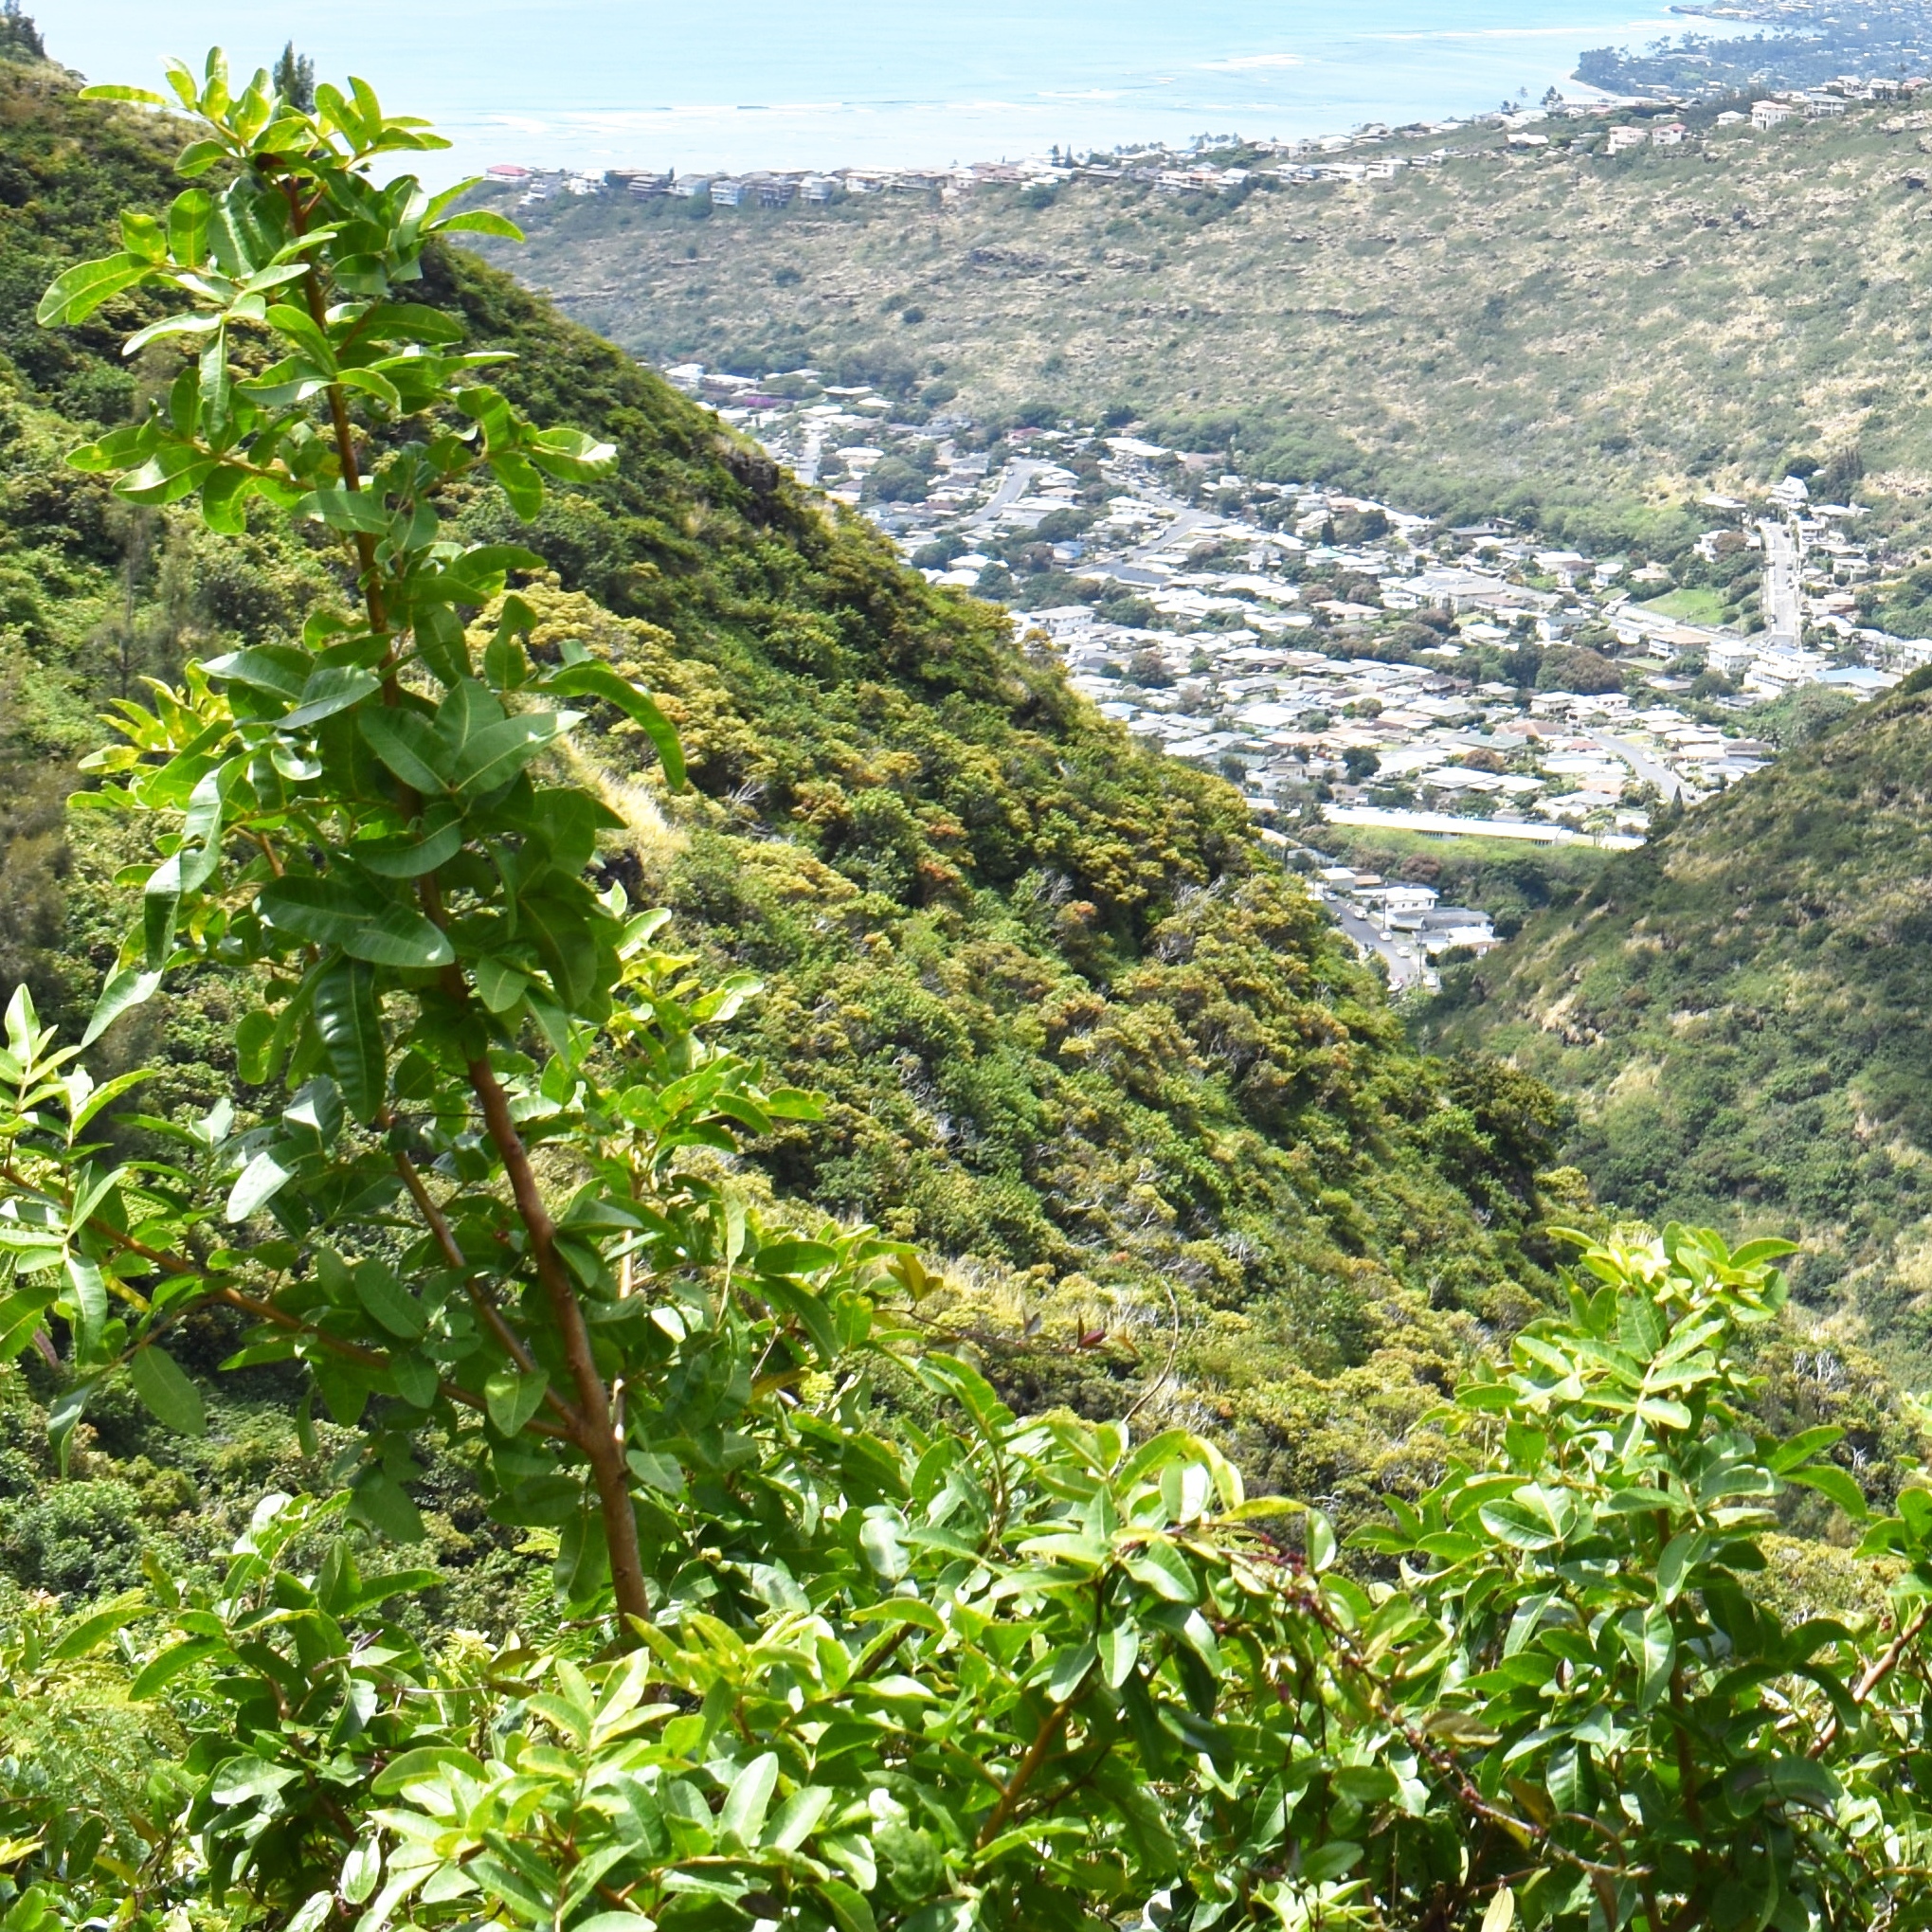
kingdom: Plantae
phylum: Tracheophyta
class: Magnoliopsida
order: Sapindales
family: Anacardiaceae
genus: Schinus
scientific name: Schinus terebinthifolia
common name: Brazilian peppertree
